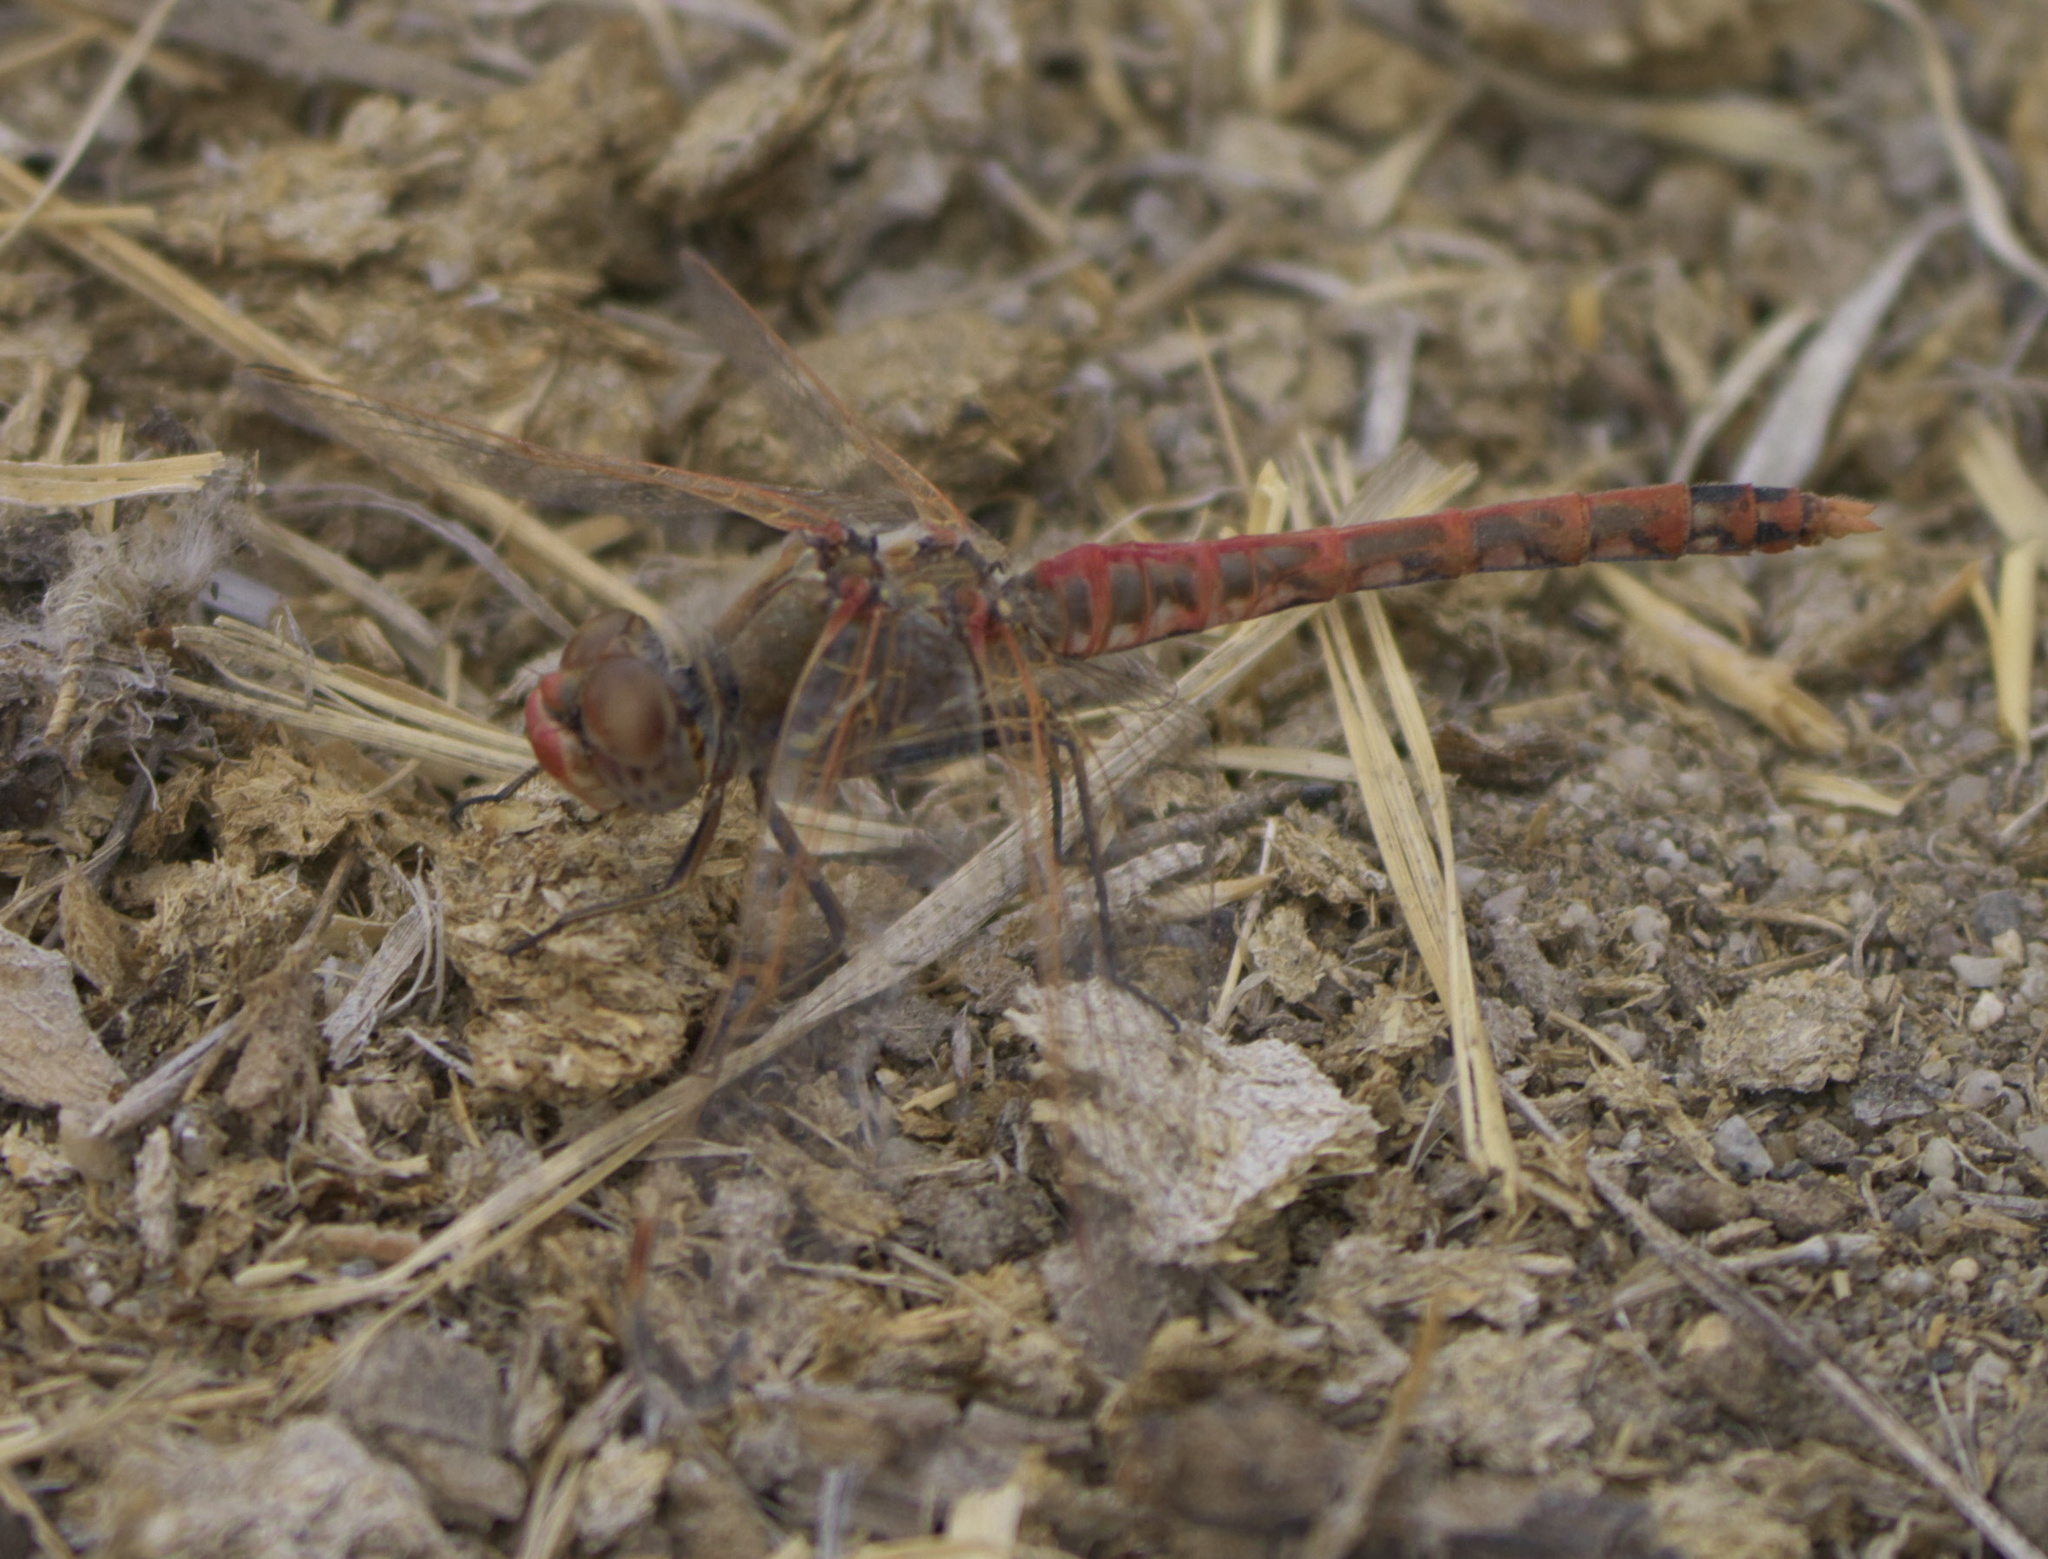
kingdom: Animalia
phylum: Arthropoda
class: Insecta
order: Odonata
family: Libellulidae
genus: Sympetrum
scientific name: Sympetrum corruptum
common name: Variegated meadowhawk
